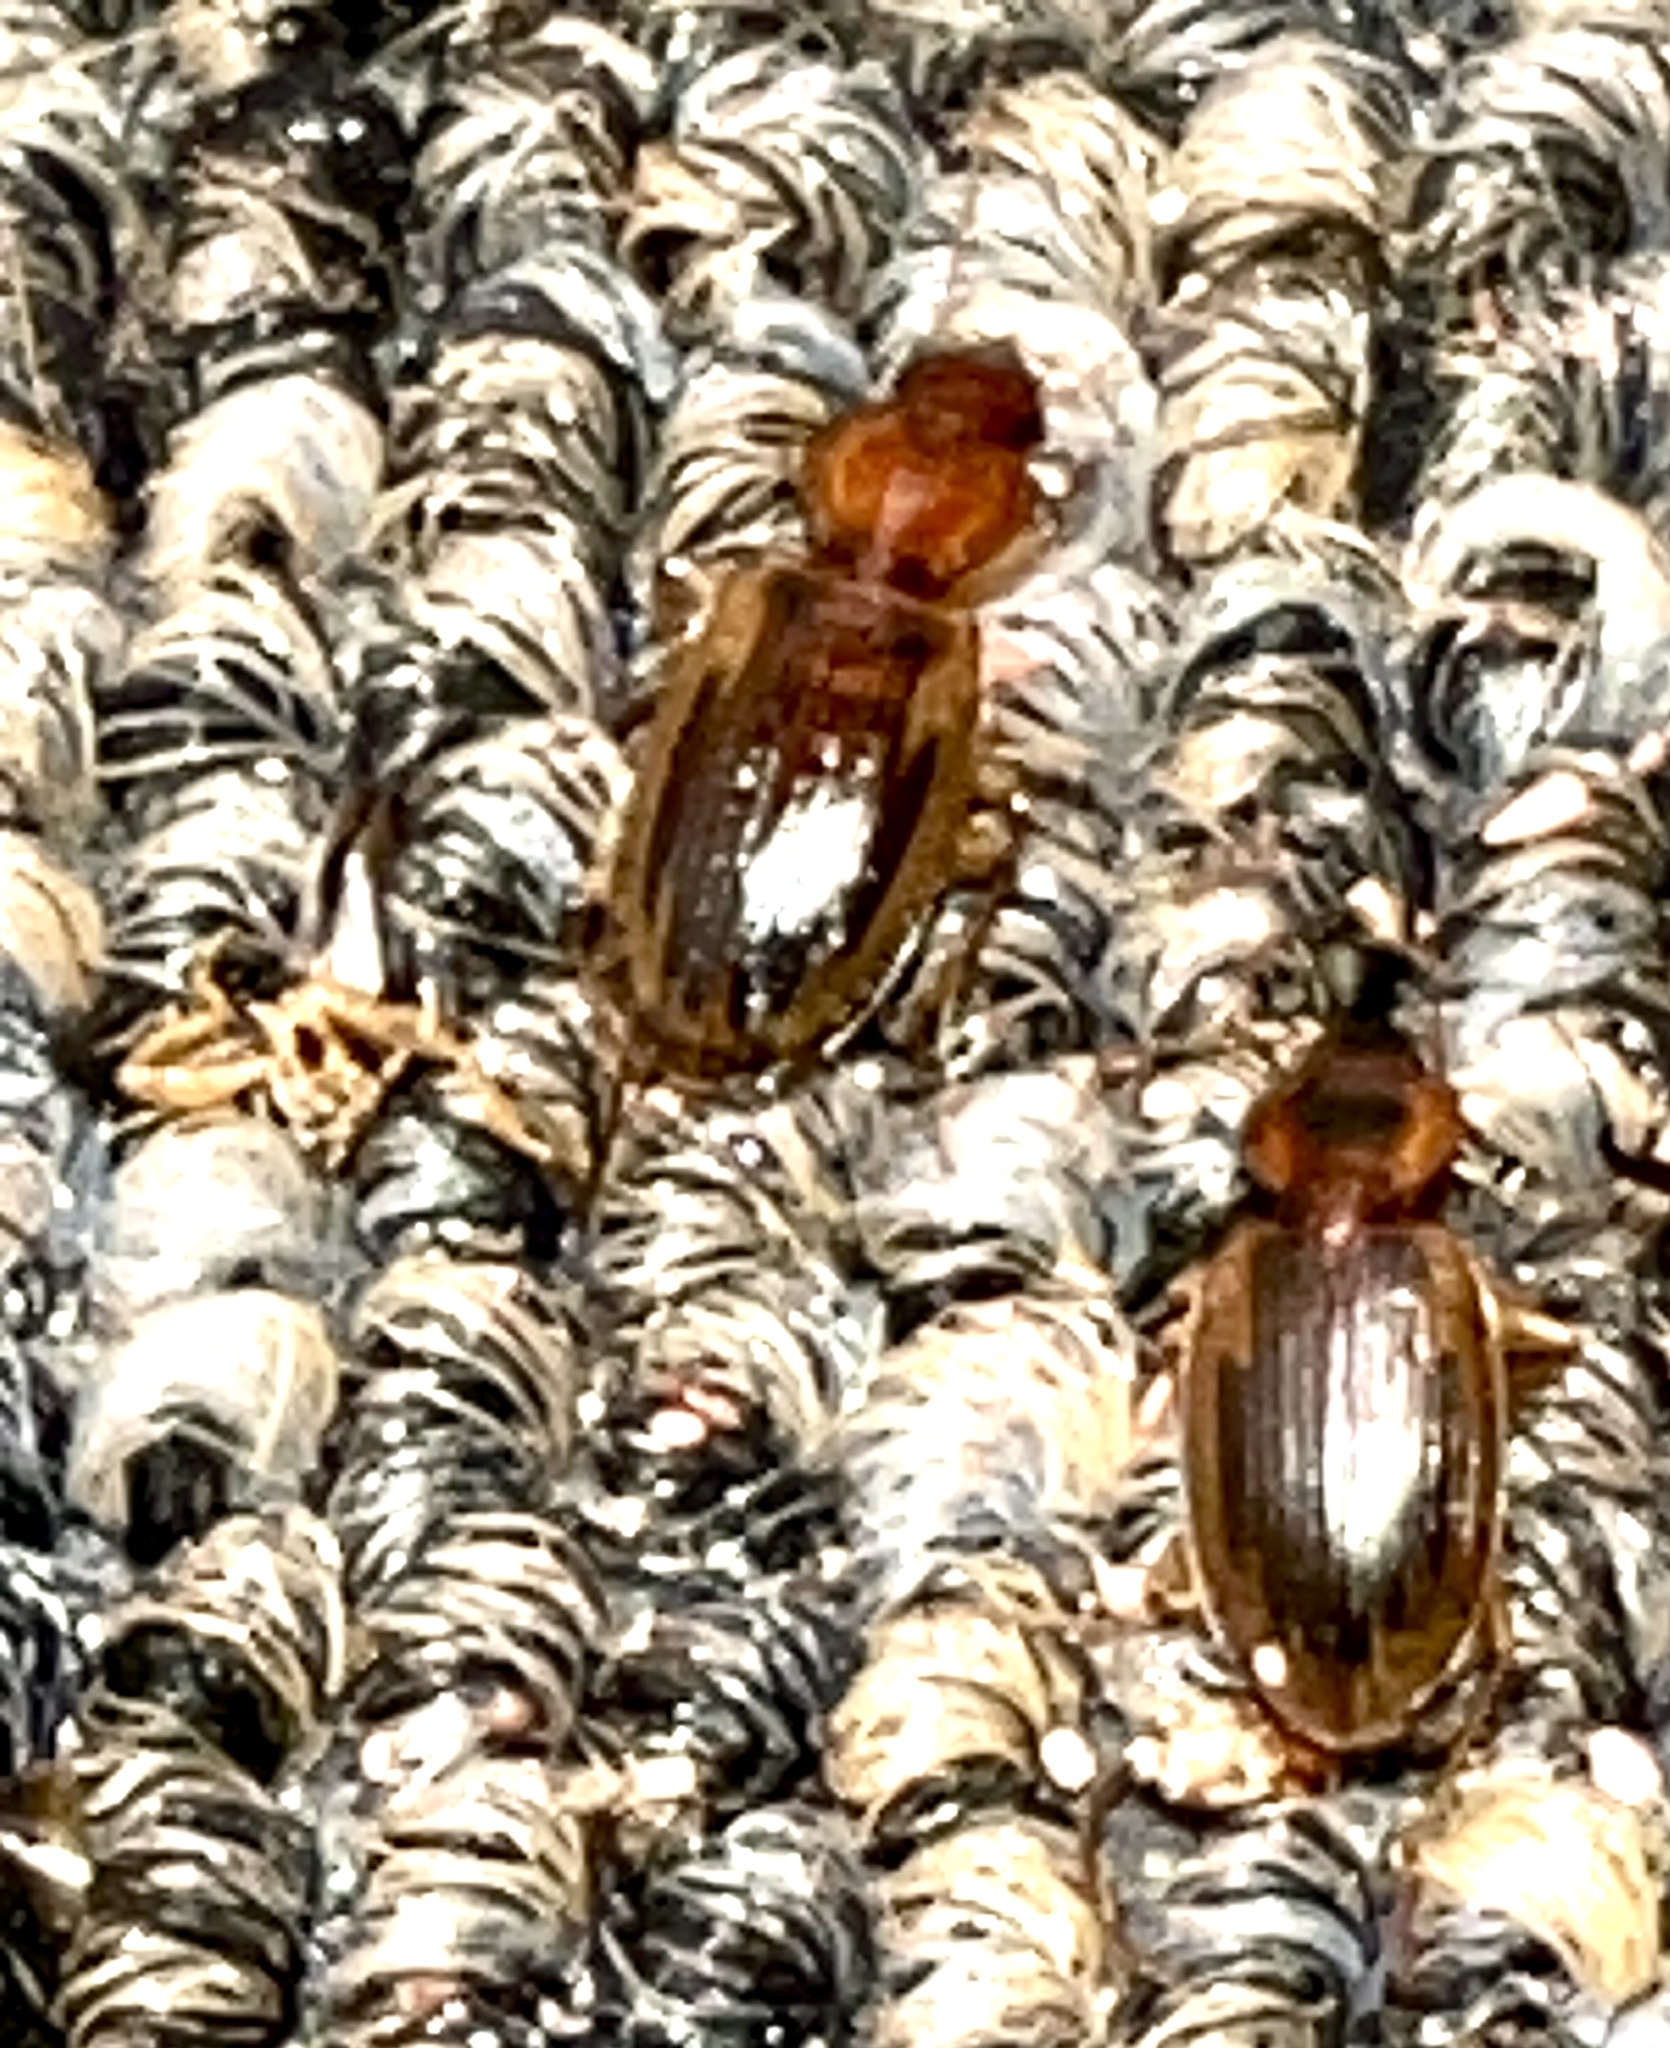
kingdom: Animalia
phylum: Arthropoda
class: Insecta
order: Coleoptera
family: Carabidae
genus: Tanystoma
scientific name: Tanystoma maculicolle
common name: Tule beetle
